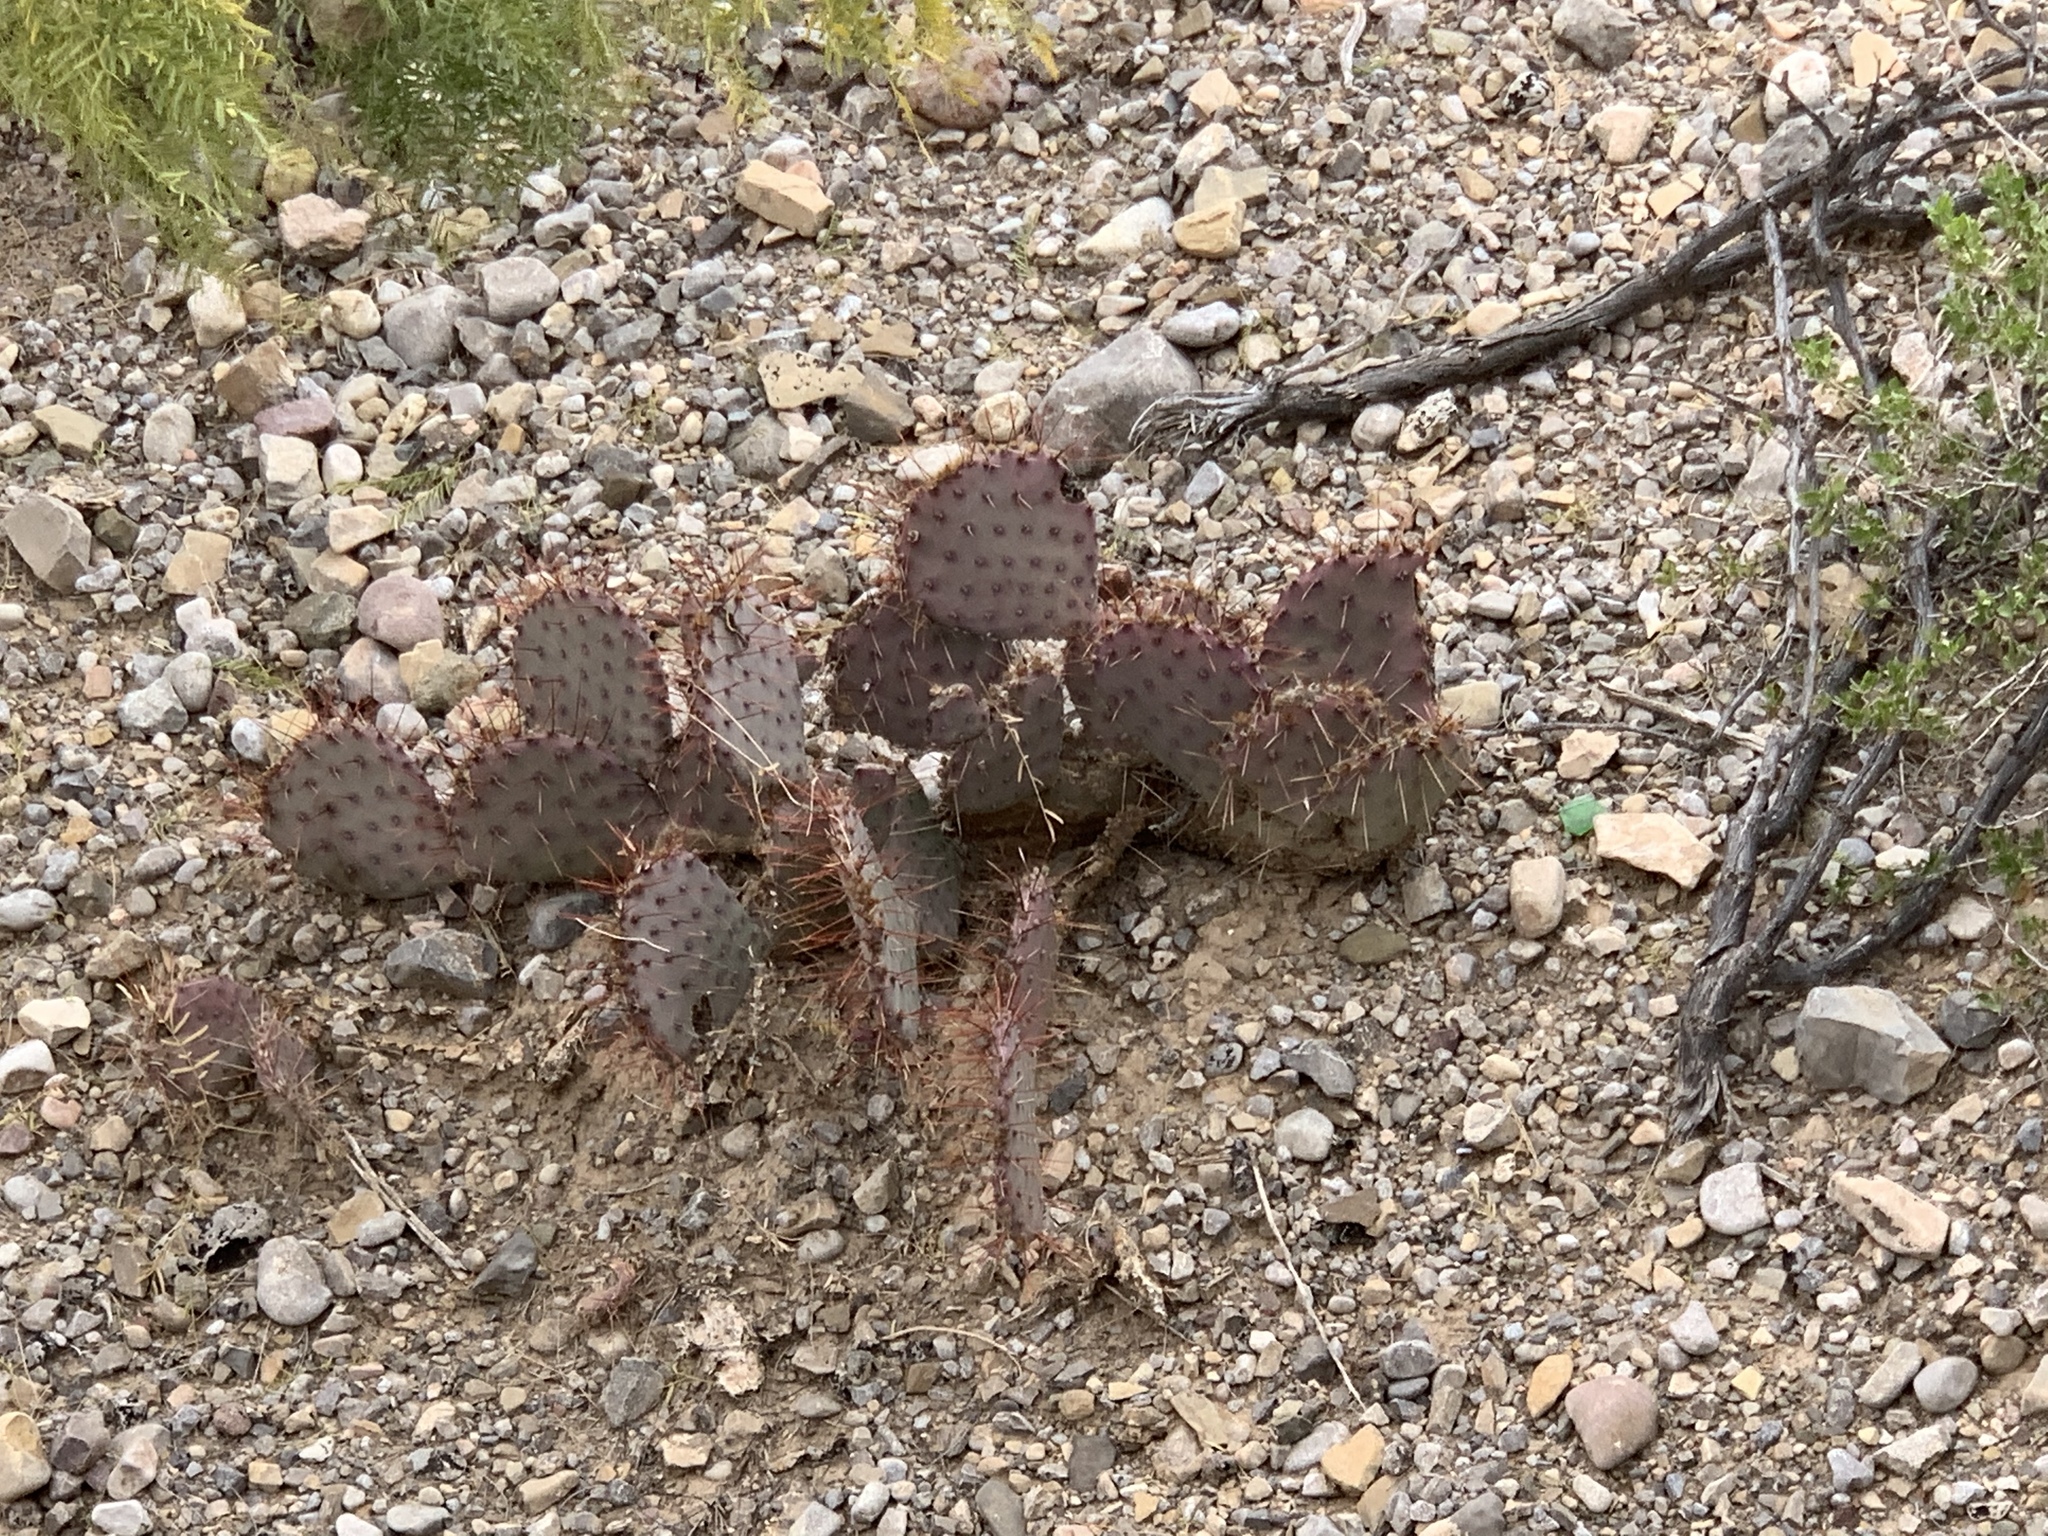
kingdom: Plantae
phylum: Tracheophyta
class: Magnoliopsida
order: Caryophyllales
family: Cactaceae
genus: Opuntia
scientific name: Opuntia macrocentra
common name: Purple prickly-pear
